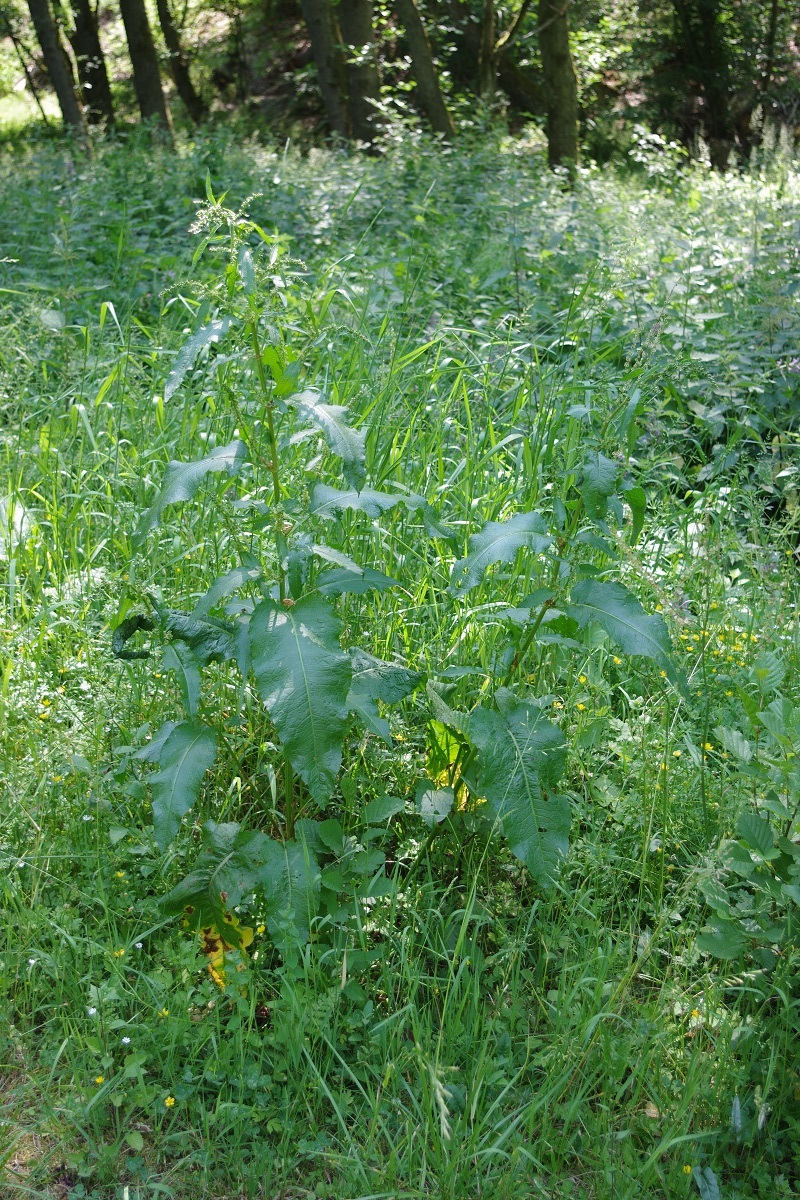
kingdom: Plantae
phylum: Tracheophyta
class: Magnoliopsida
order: Caryophyllales
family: Polygonaceae
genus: Rumex
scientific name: Rumex obtusifolius
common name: Bitter dock
